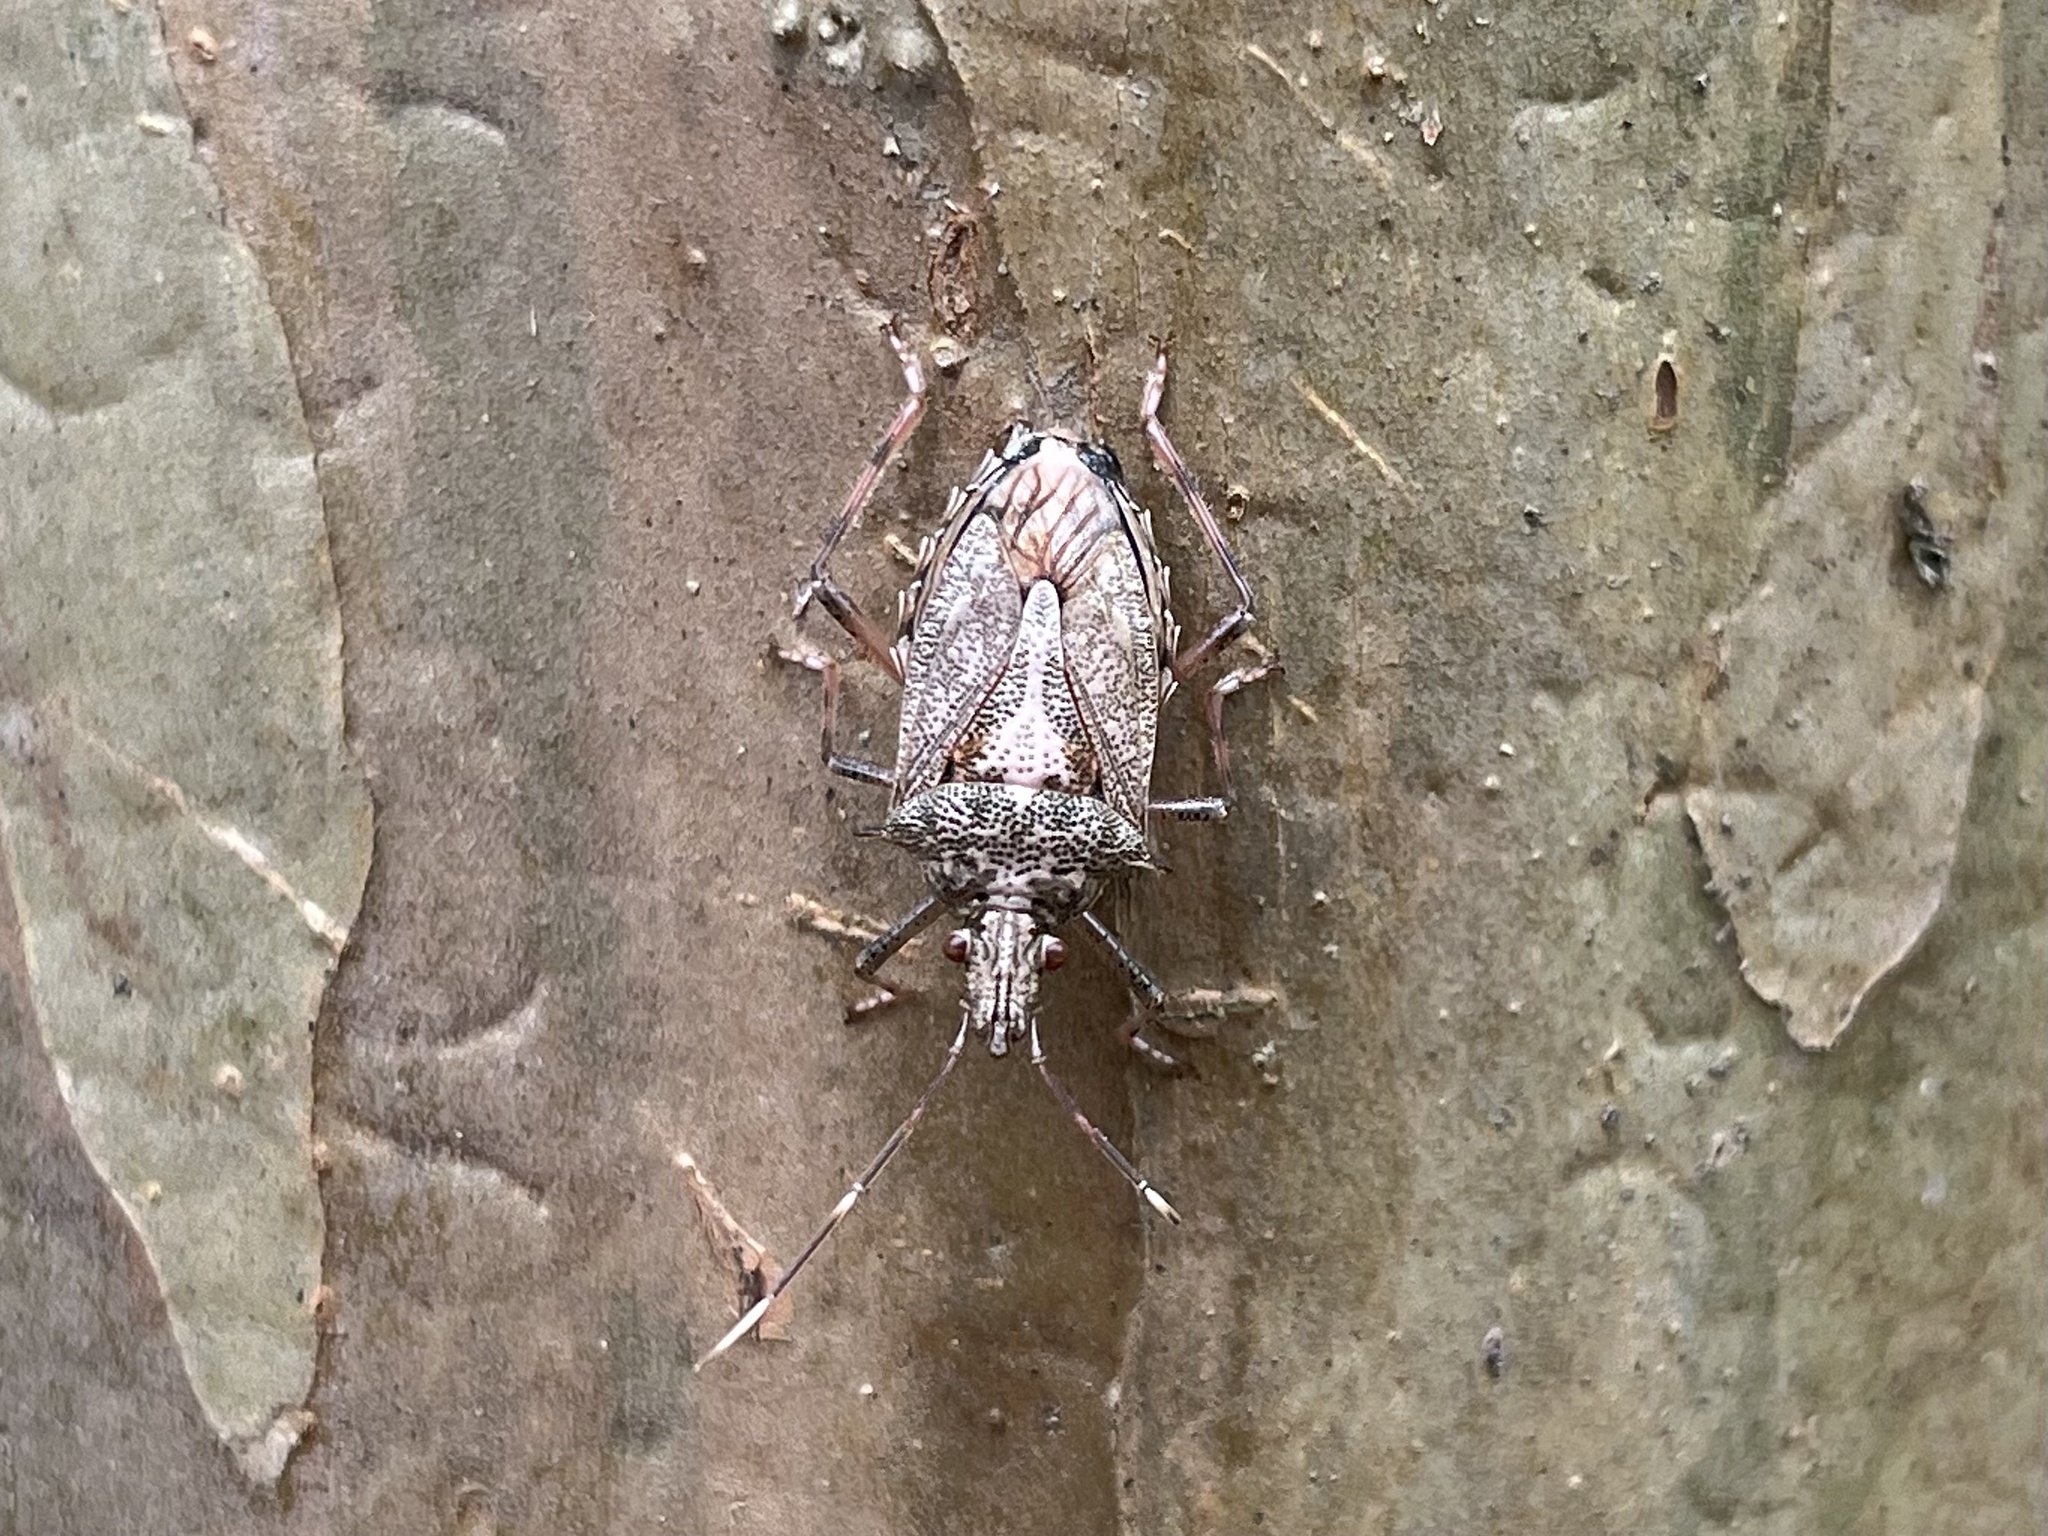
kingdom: Animalia
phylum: Arthropoda
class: Insecta
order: Hemiptera
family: Pentatomidae
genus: Bromocoris
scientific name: Bromocoris
